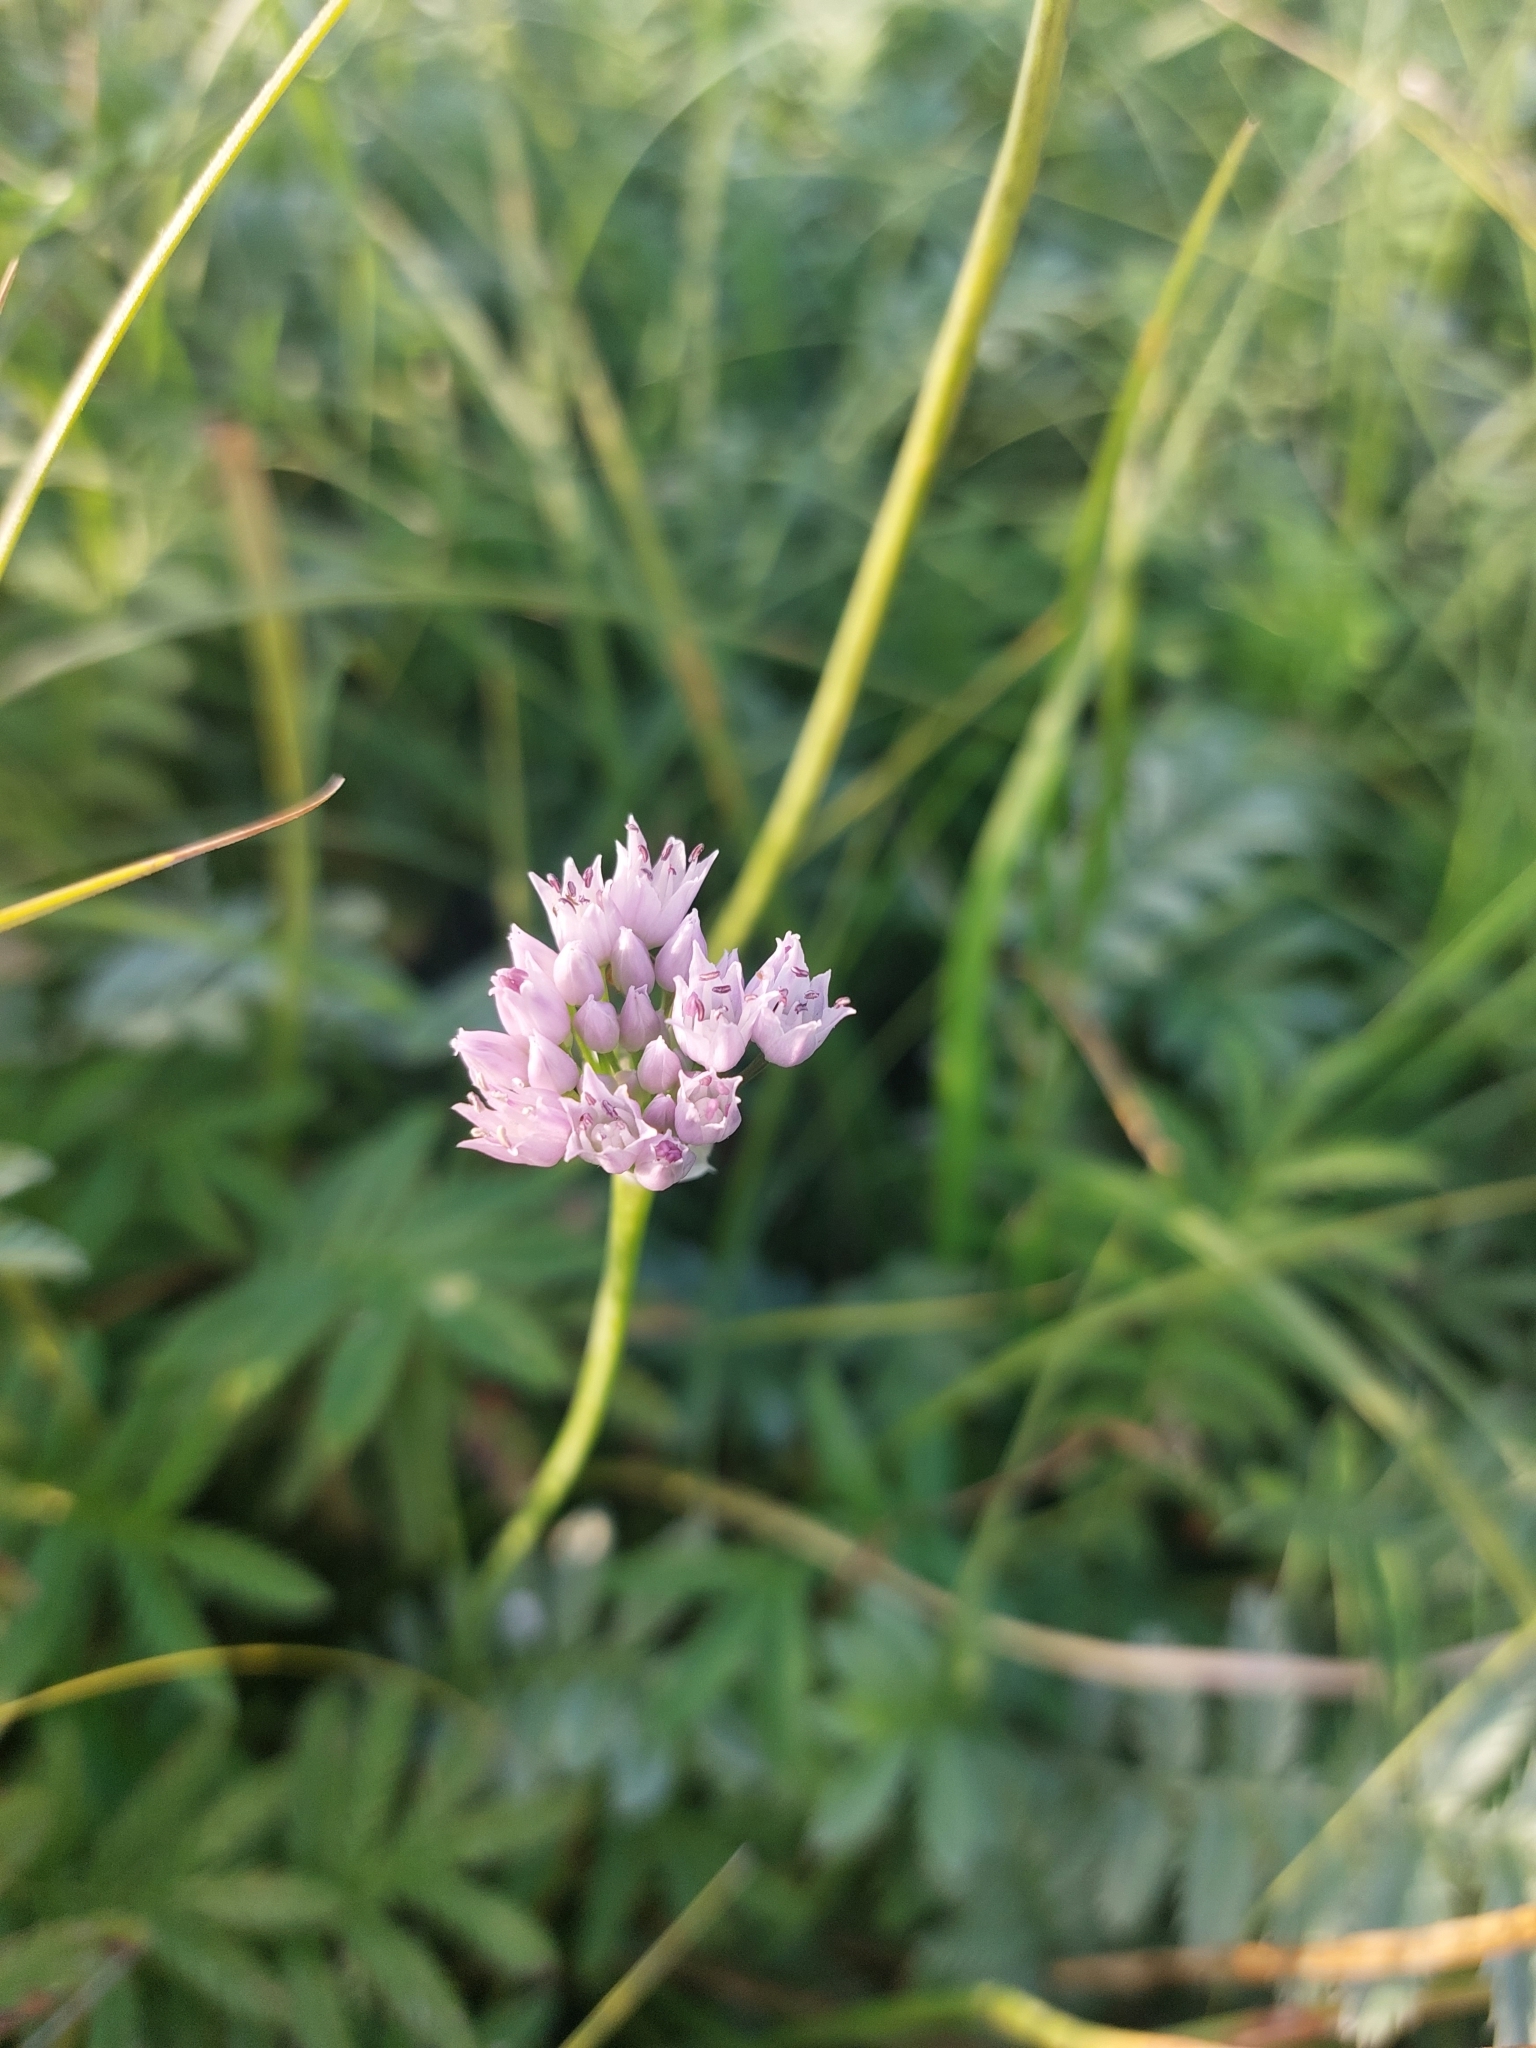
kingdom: Plantae
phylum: Tracheophyta
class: Liliopsida
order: Asparagales
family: Amaryllidaceae
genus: Allium
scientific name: Allium angulosum
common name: Mouse garlic
